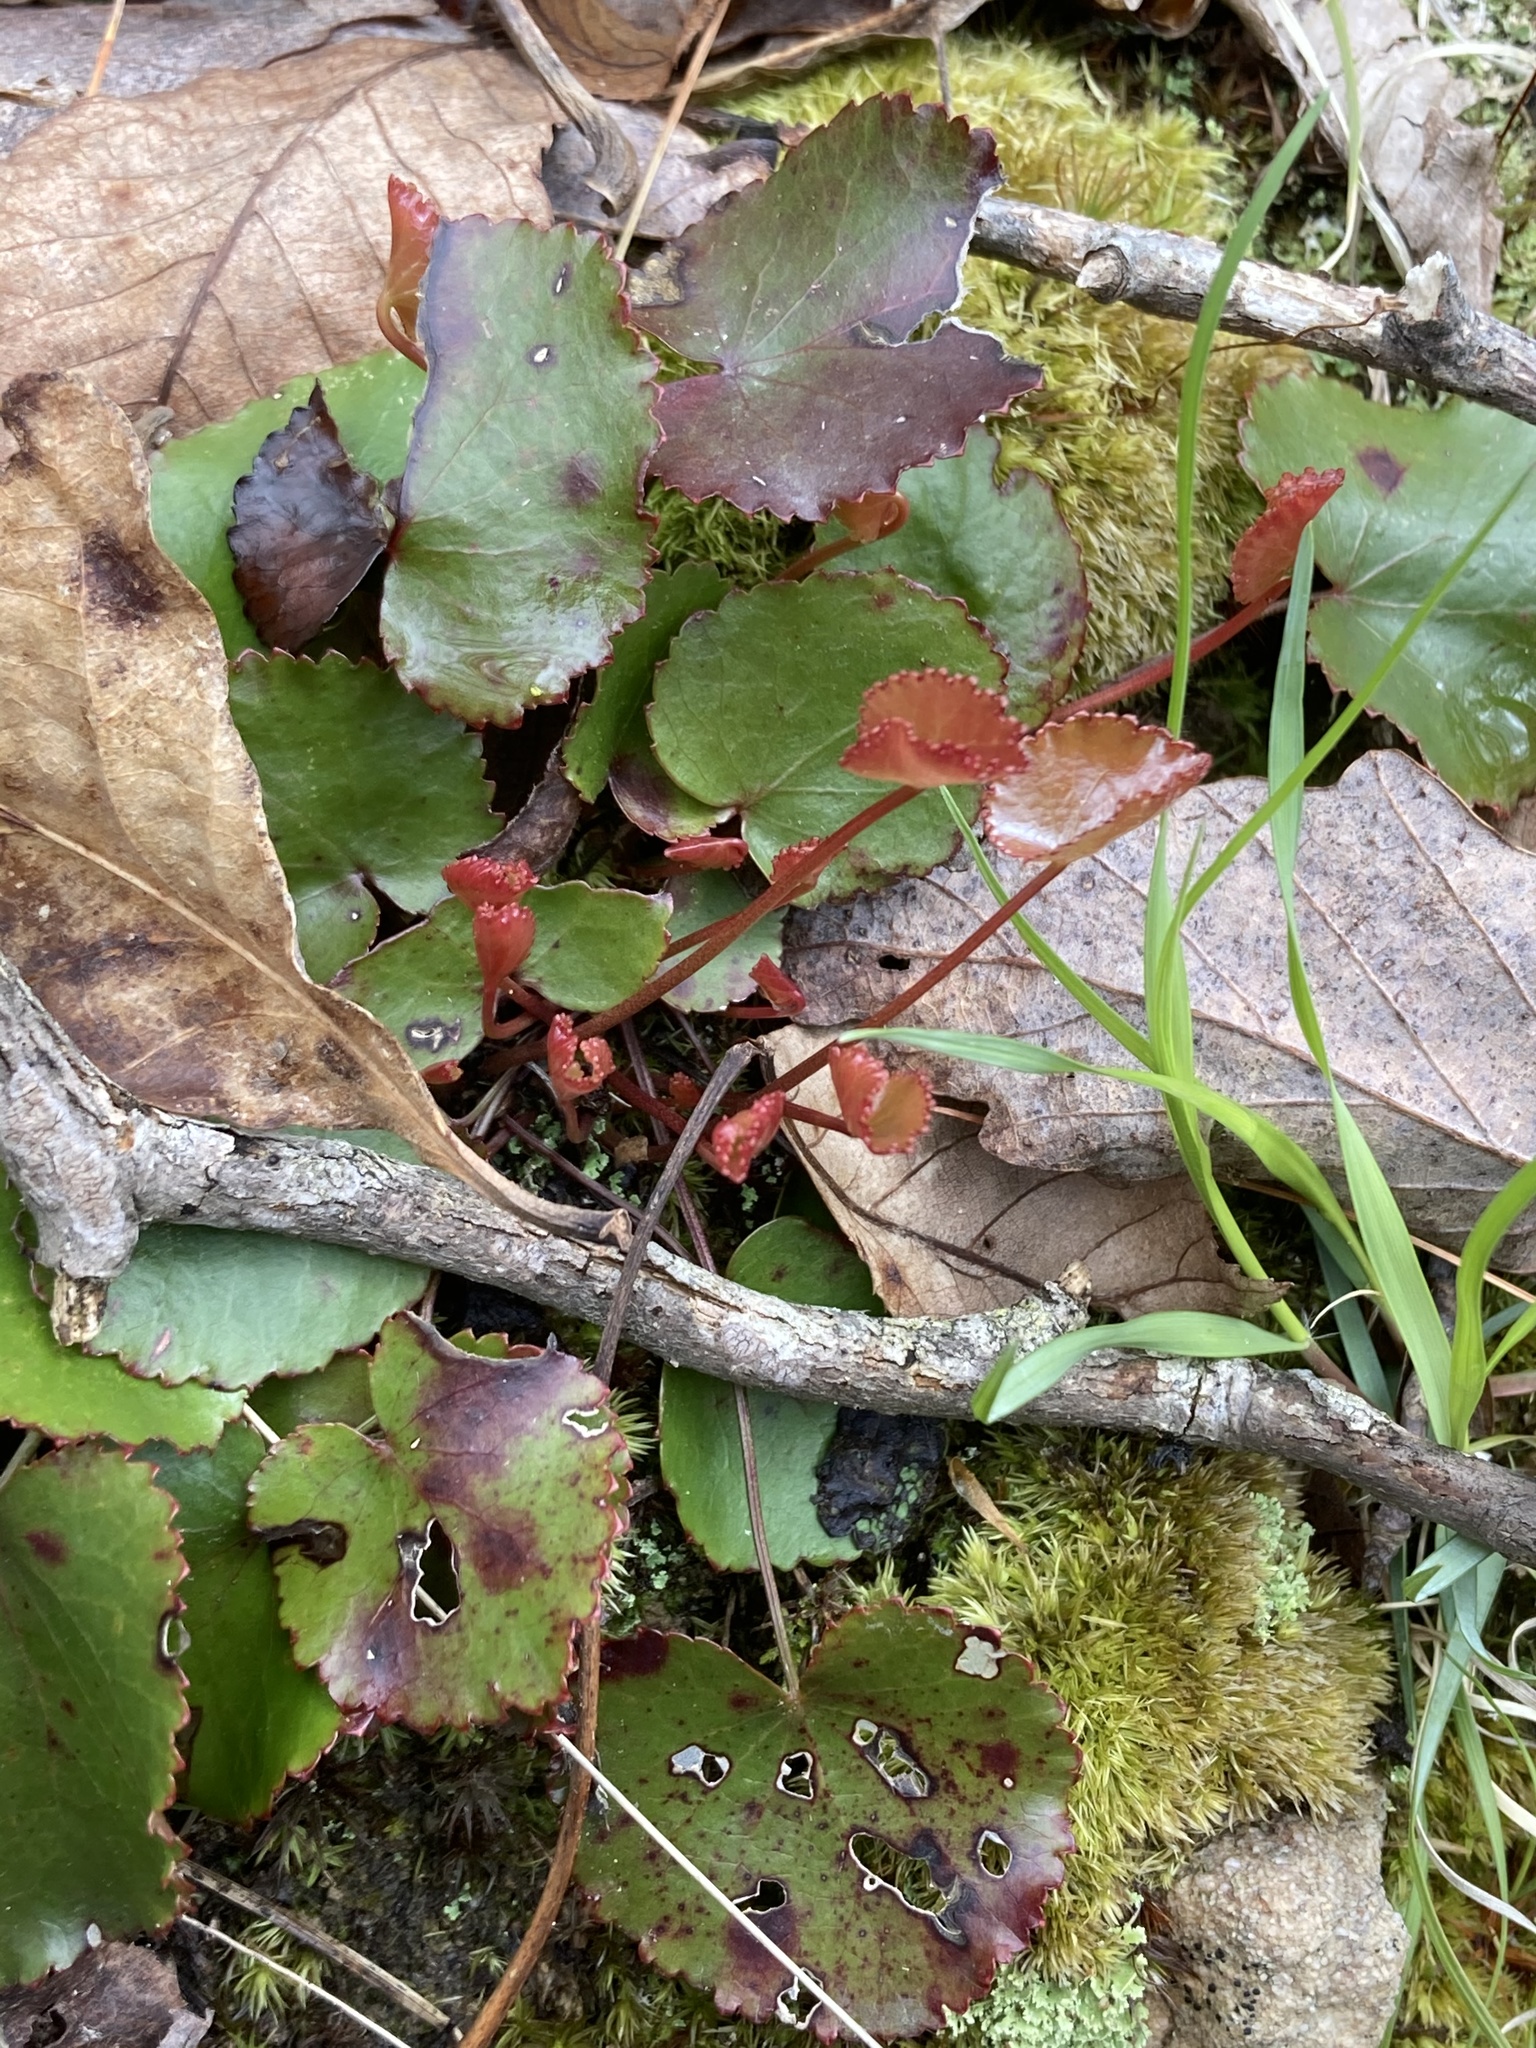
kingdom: Plantae
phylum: Tracheophyta
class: Magnoliopsida
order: Ericales
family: Diapensiaceae
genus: Galax
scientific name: Galax urceolata
